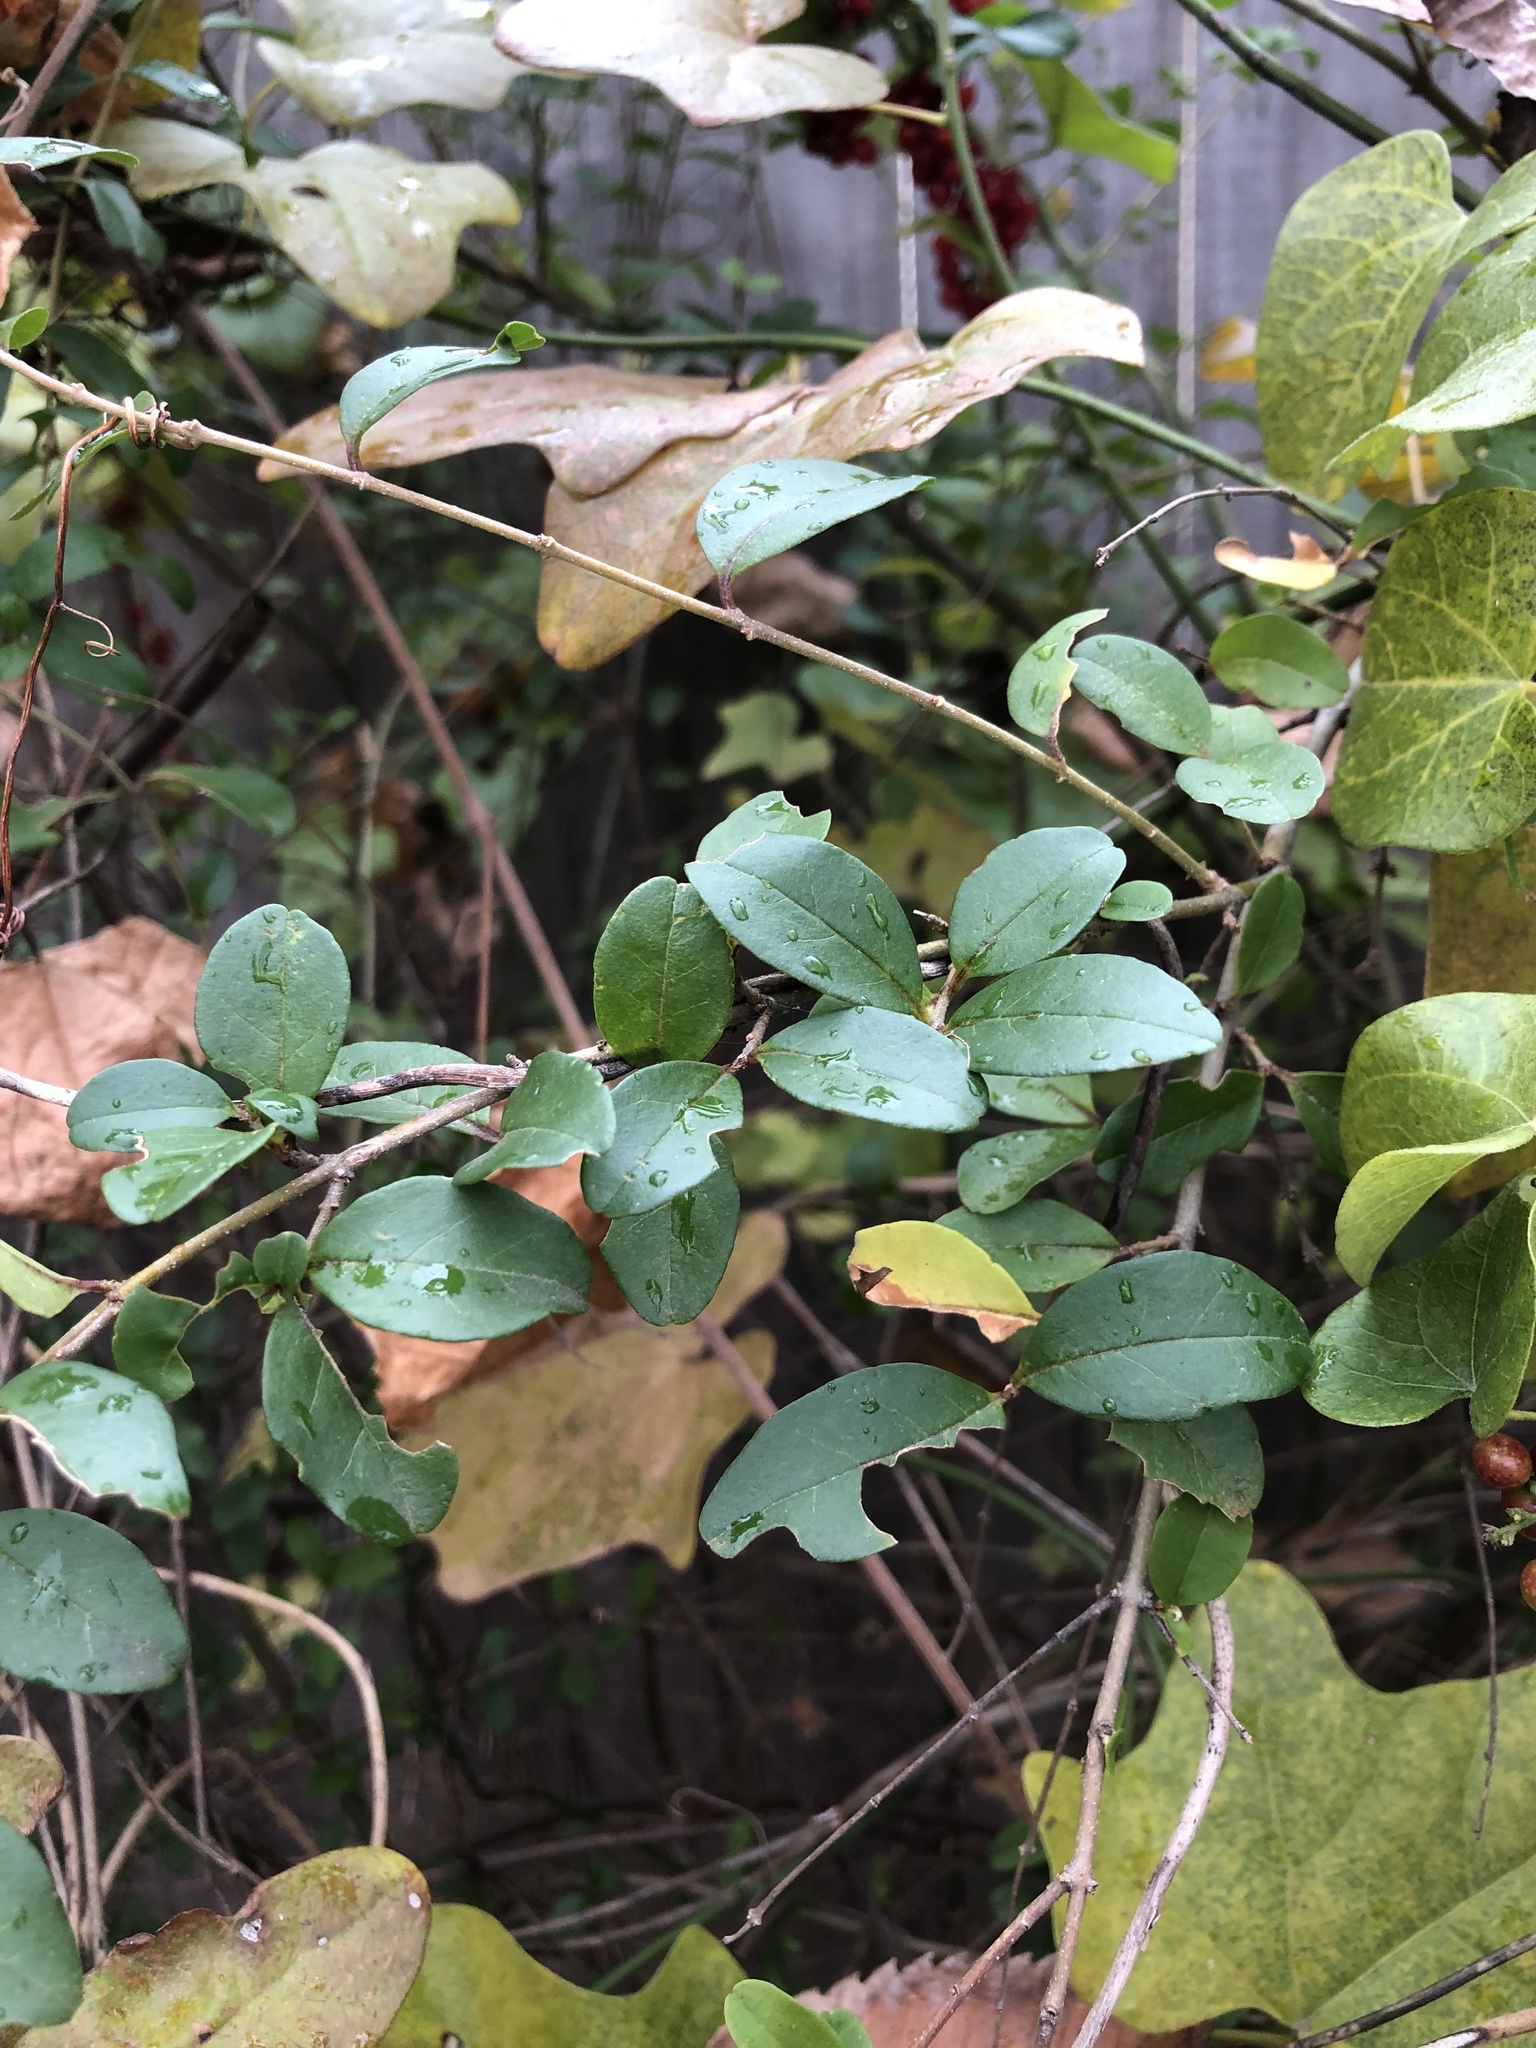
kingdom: Plantae
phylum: Tracheophyta
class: Magnoliopsida
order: Lamiales
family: Oleaceae
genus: Ligustrum
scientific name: Ligustrum sinense
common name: Chinese privet
